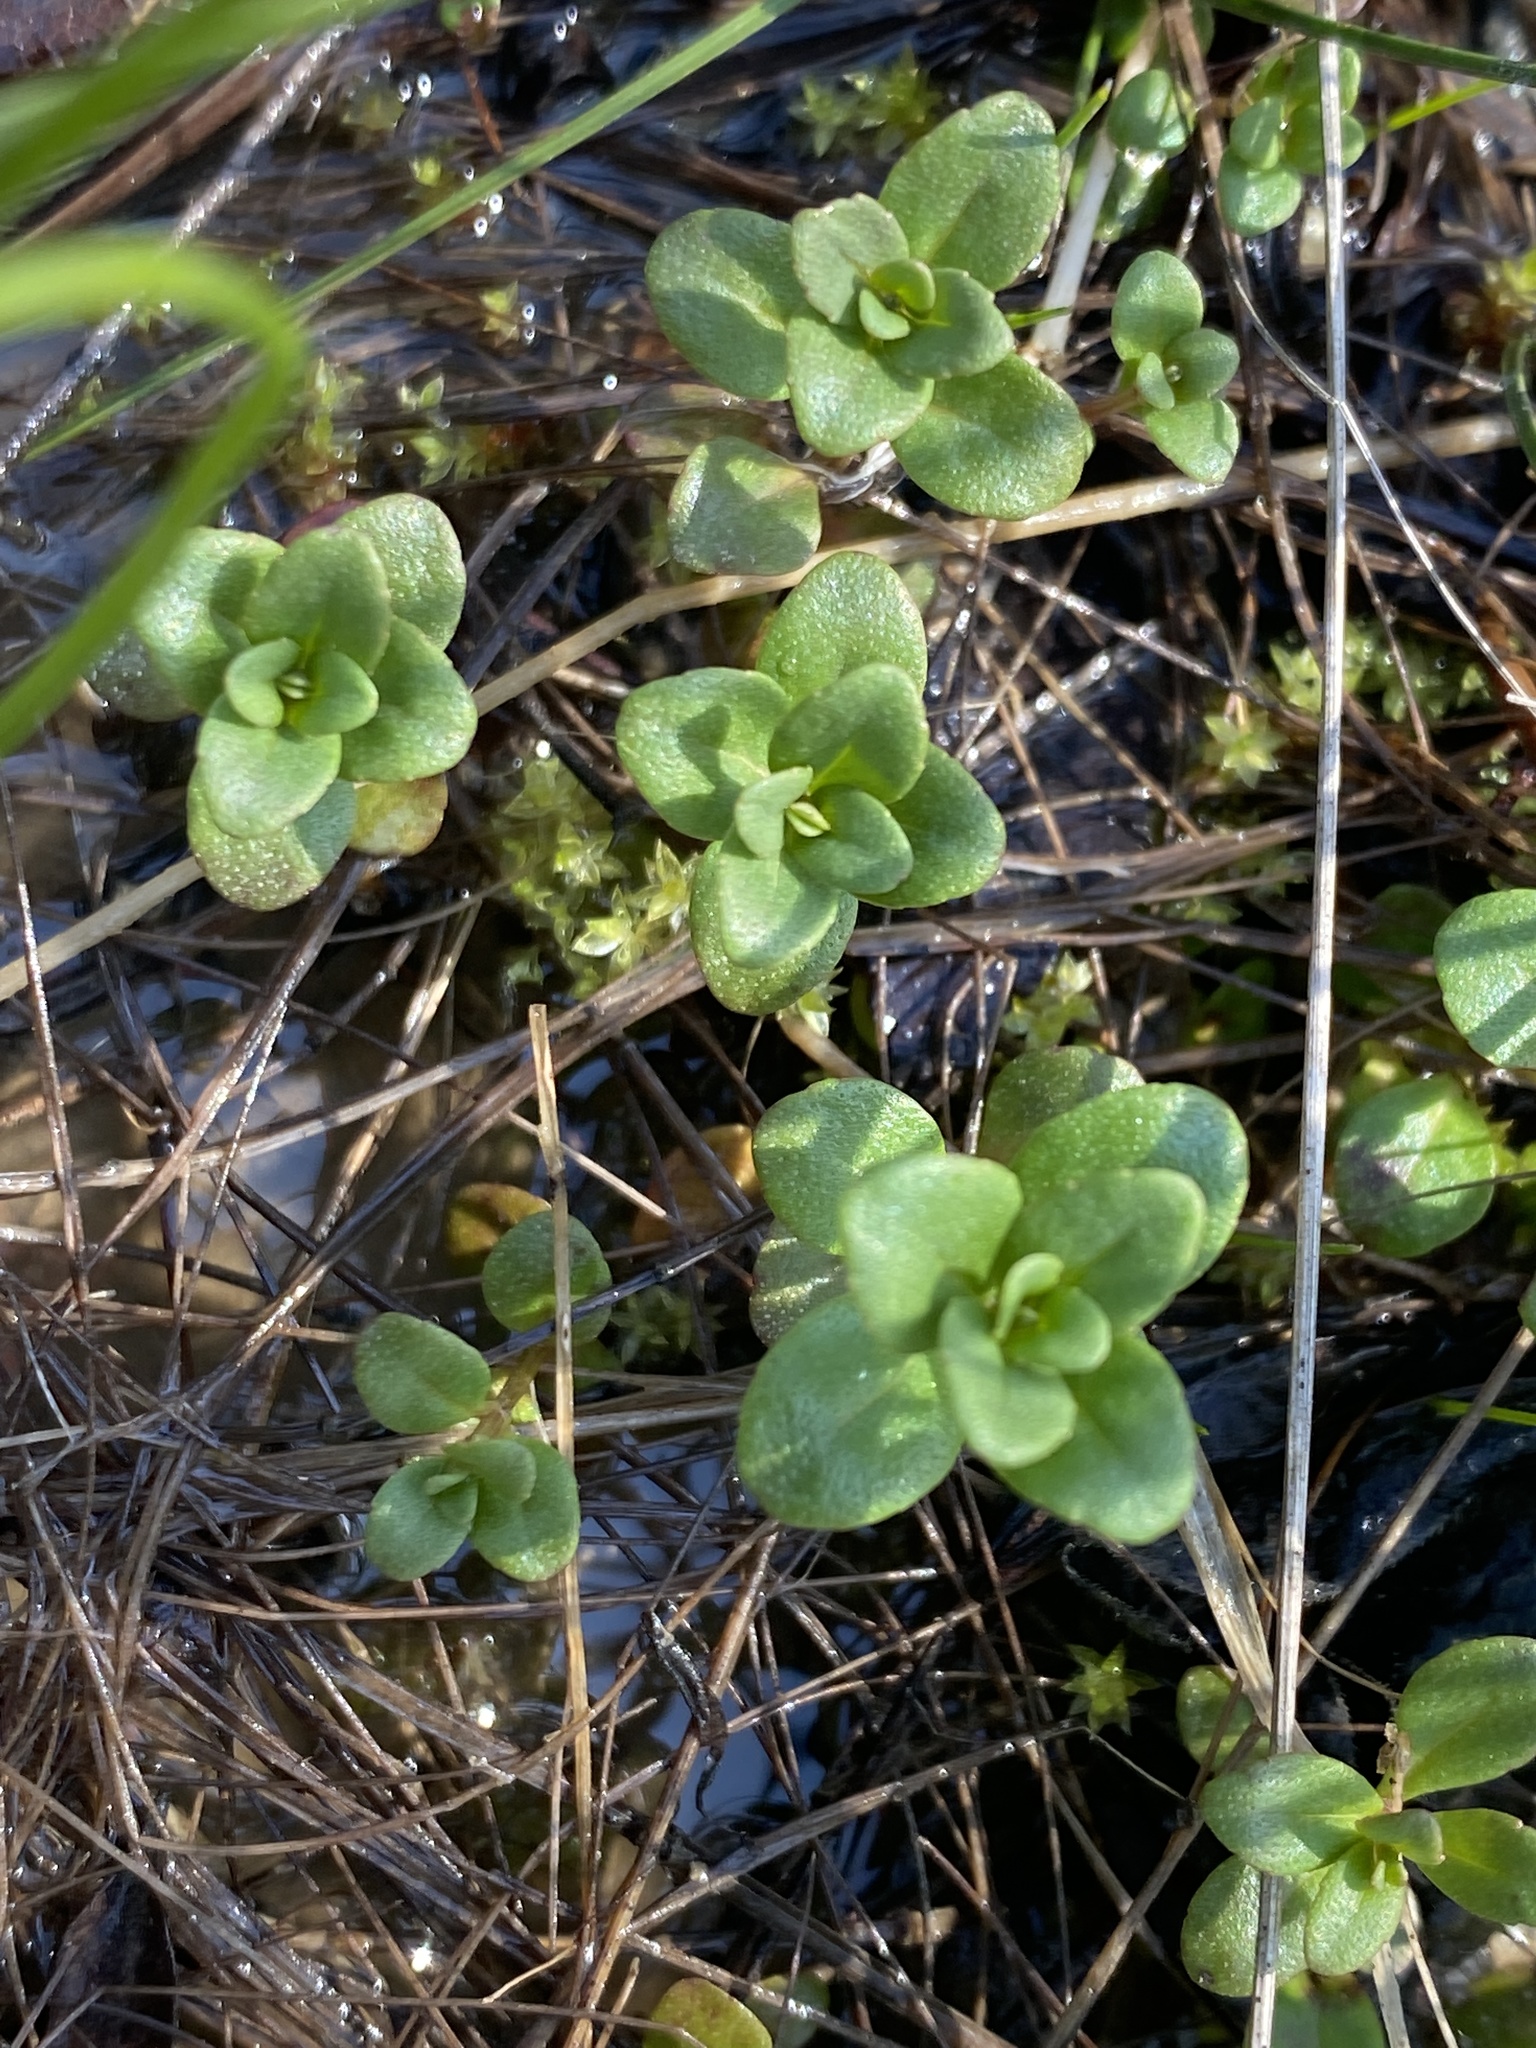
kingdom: Plantae
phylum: Tracheophyta
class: Magnoliopsida
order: Lamiales
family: Lamiaceae
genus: Clinopodium
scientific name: Clinopodium glabellum
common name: Ozark calamint
